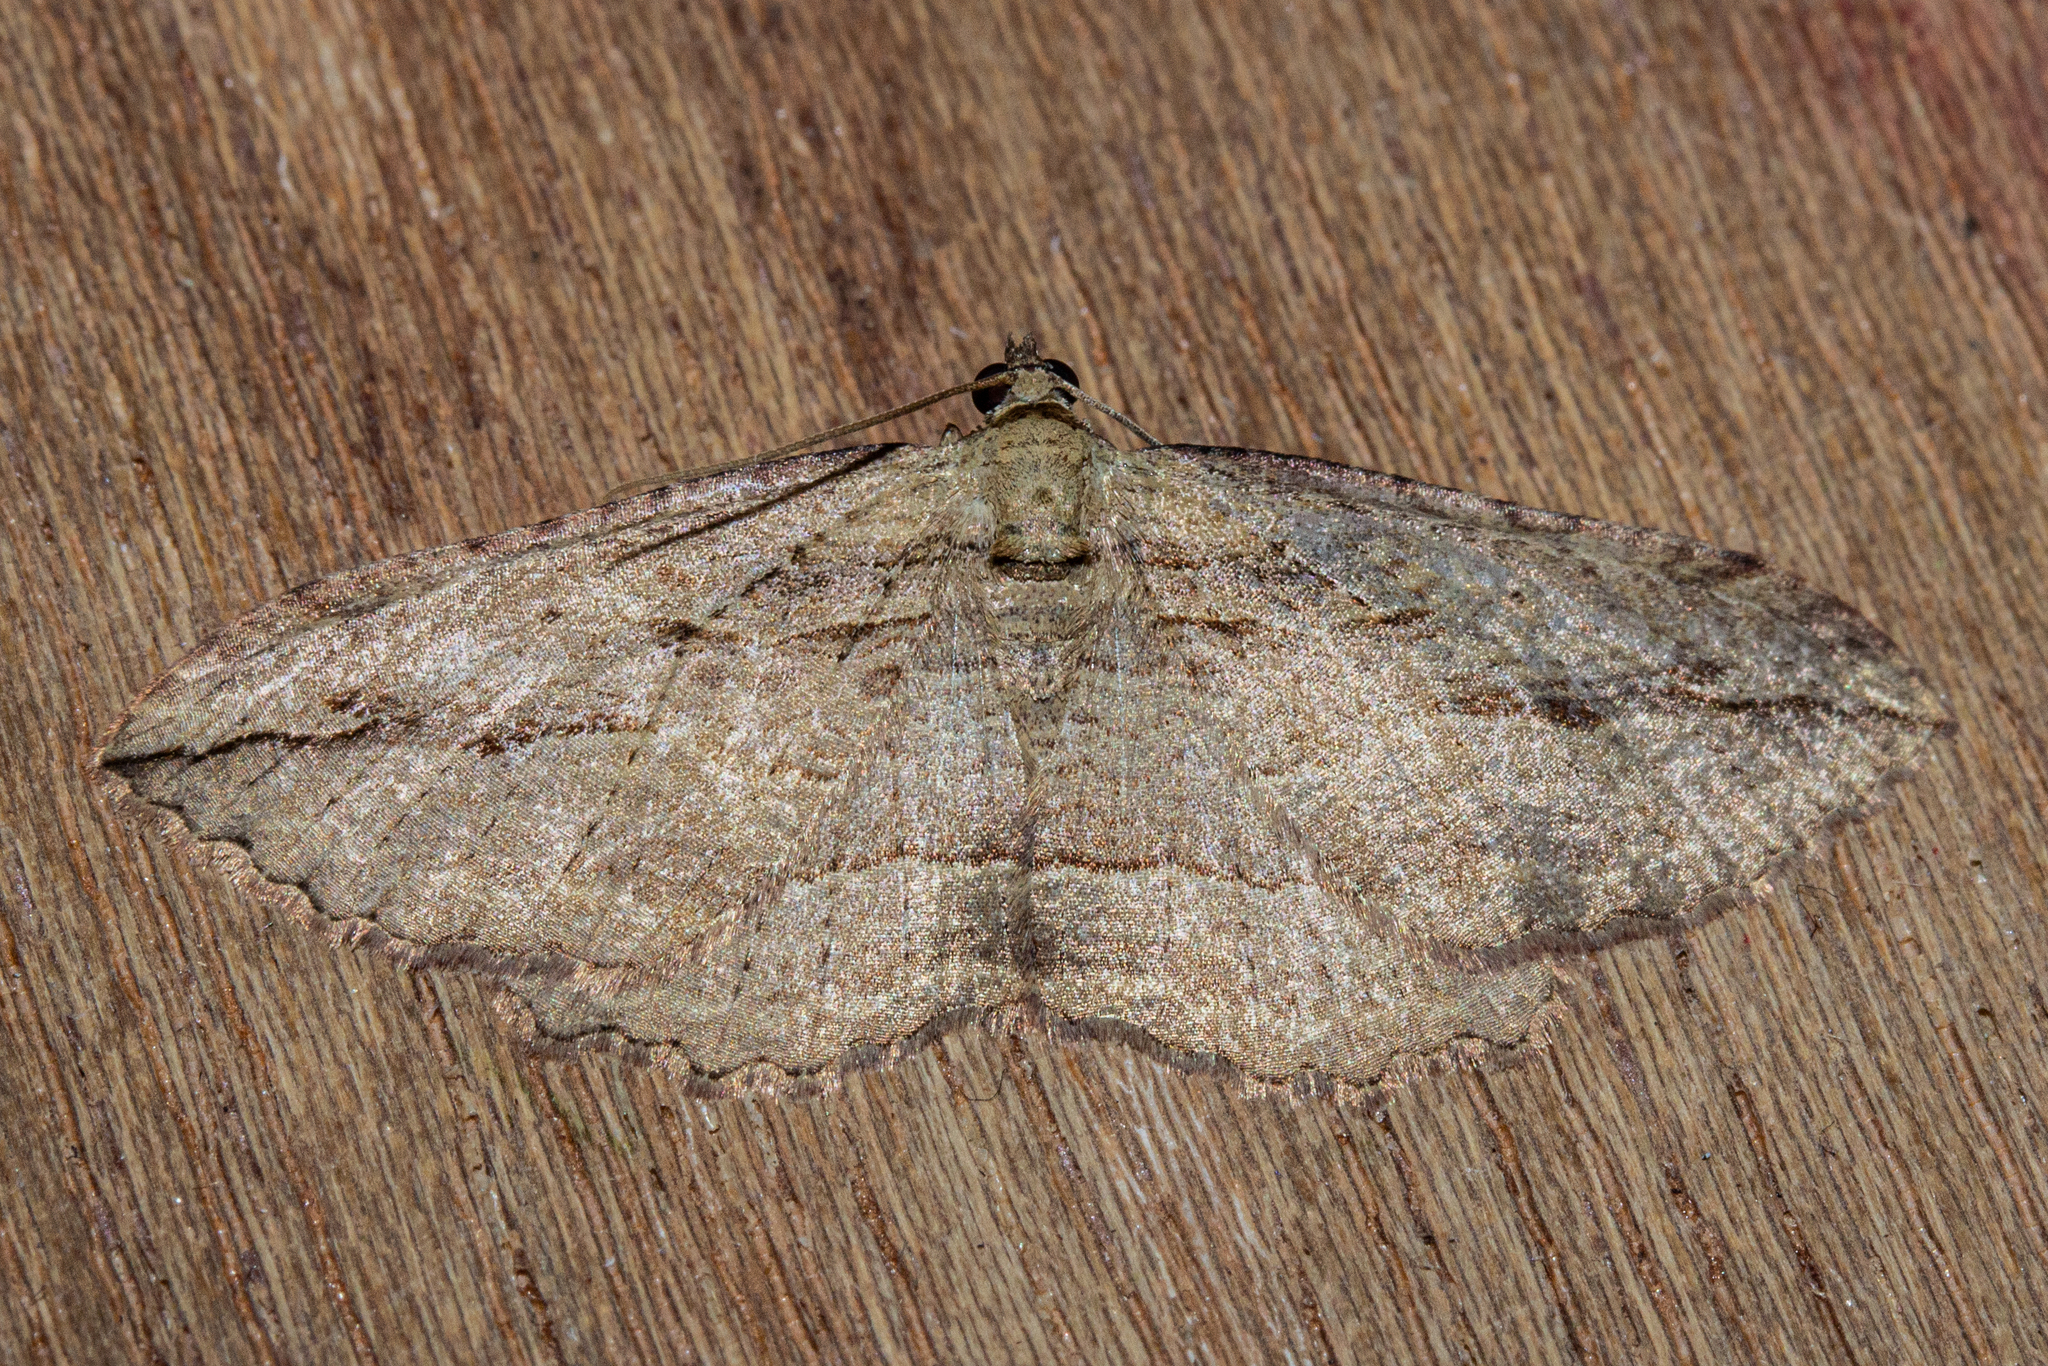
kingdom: Animalia
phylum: Arthropoda
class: Insecta
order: Lepidoptera
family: Geometridae
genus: Austrocidaria
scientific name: Austrocidaria gobiata
